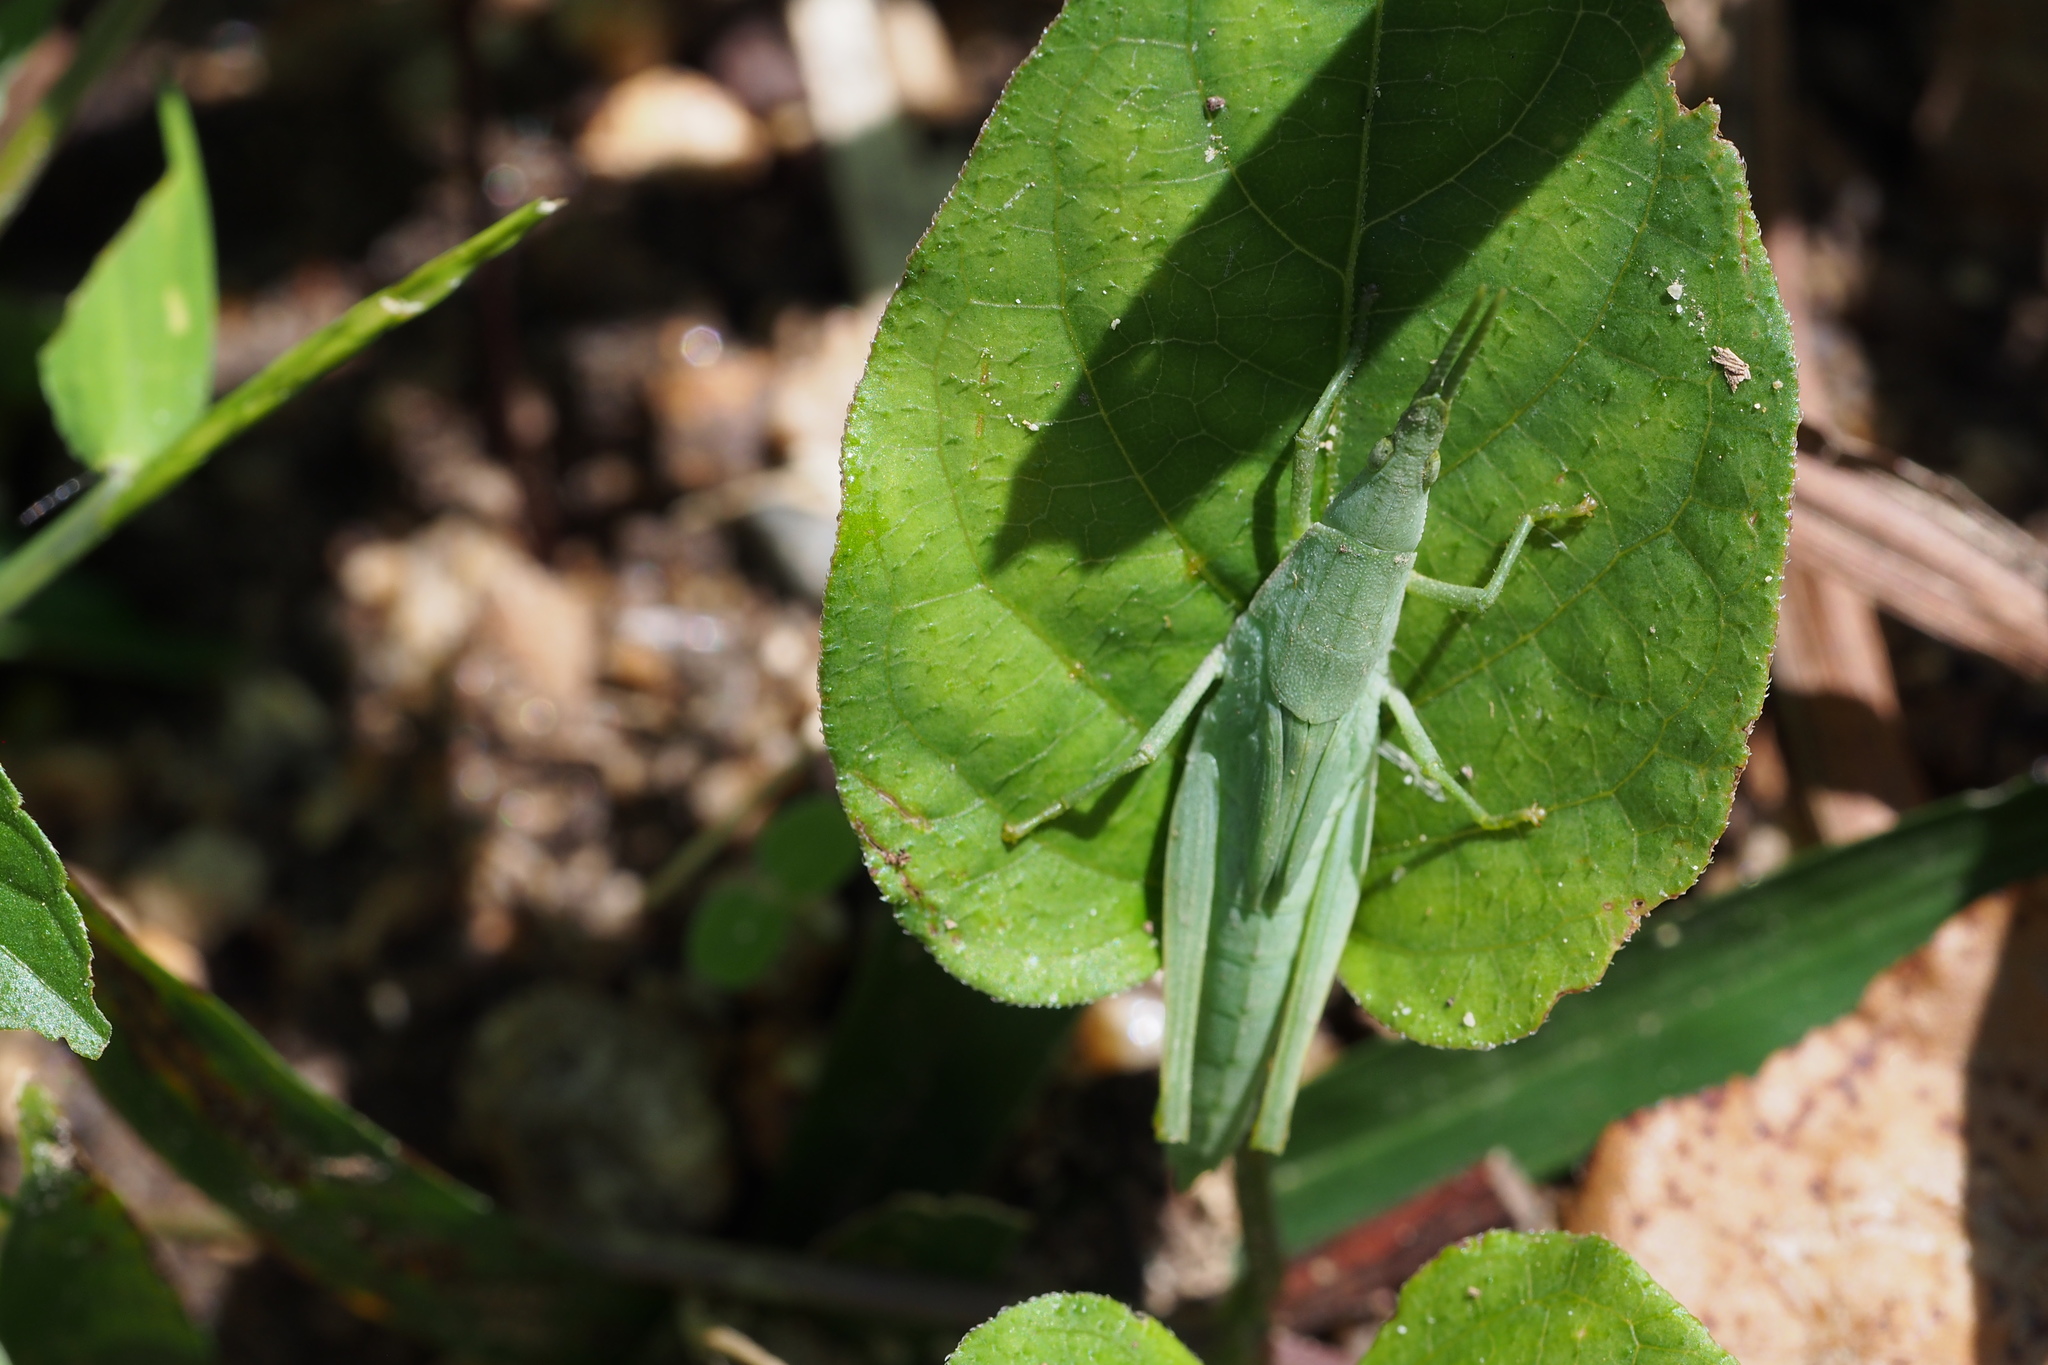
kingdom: Animalia
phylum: Arthropoda
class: Insecta
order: Orthoptera
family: Pyrgomorphidae
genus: Atractomorpha
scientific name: Atractomorpha lata
